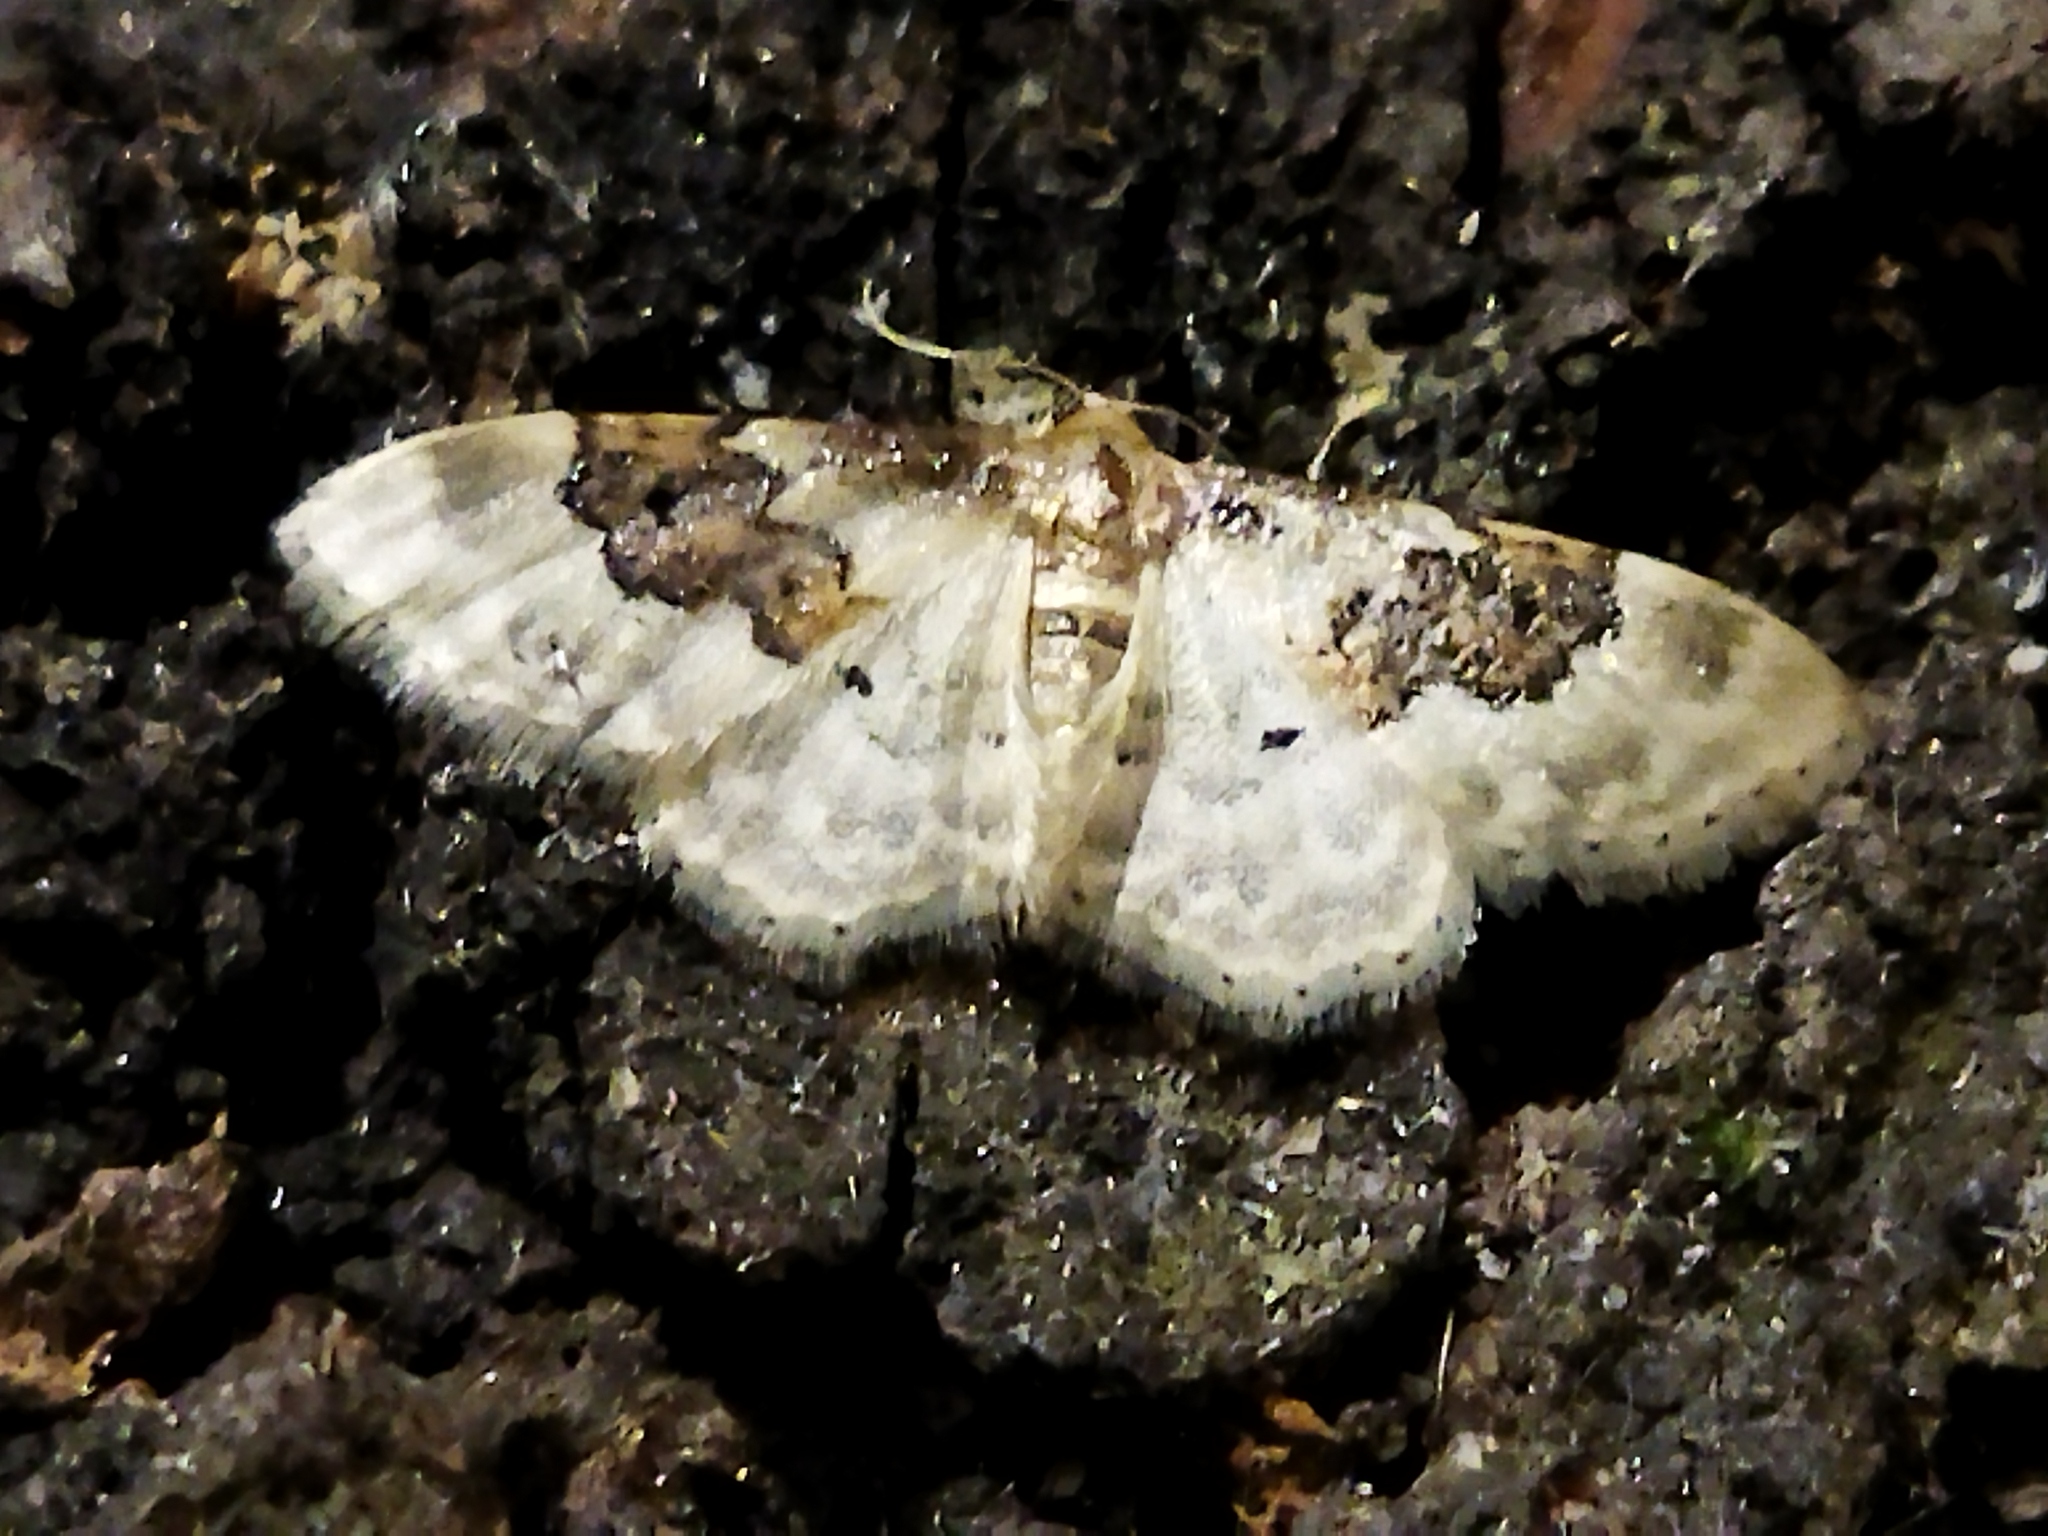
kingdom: Animalia
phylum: Arthropoda
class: Insecta
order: Lepidoptera
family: Geometridae
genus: Idaea
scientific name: Idaea rusticata
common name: Least carpet
